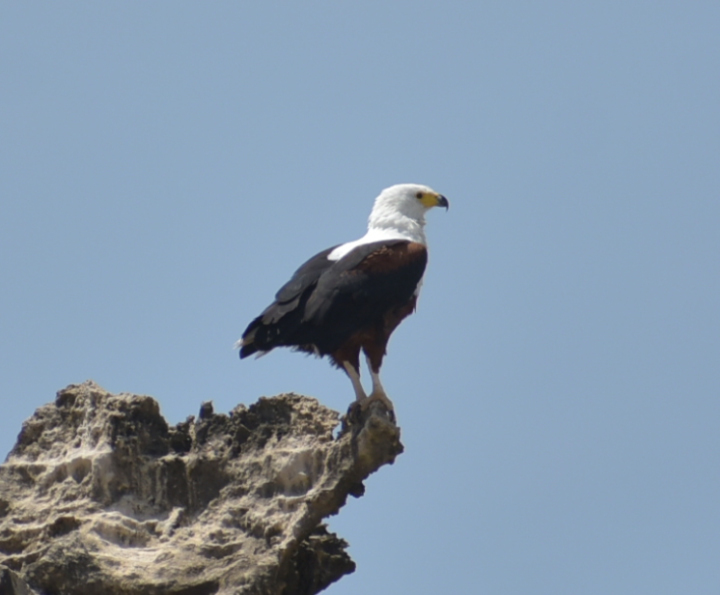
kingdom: Animalia
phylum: Chordata
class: Aves
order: Accipitriformes
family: Accipitridae
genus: Haliaeetus
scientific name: Haliaeetus vocifer
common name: African fish eagle
